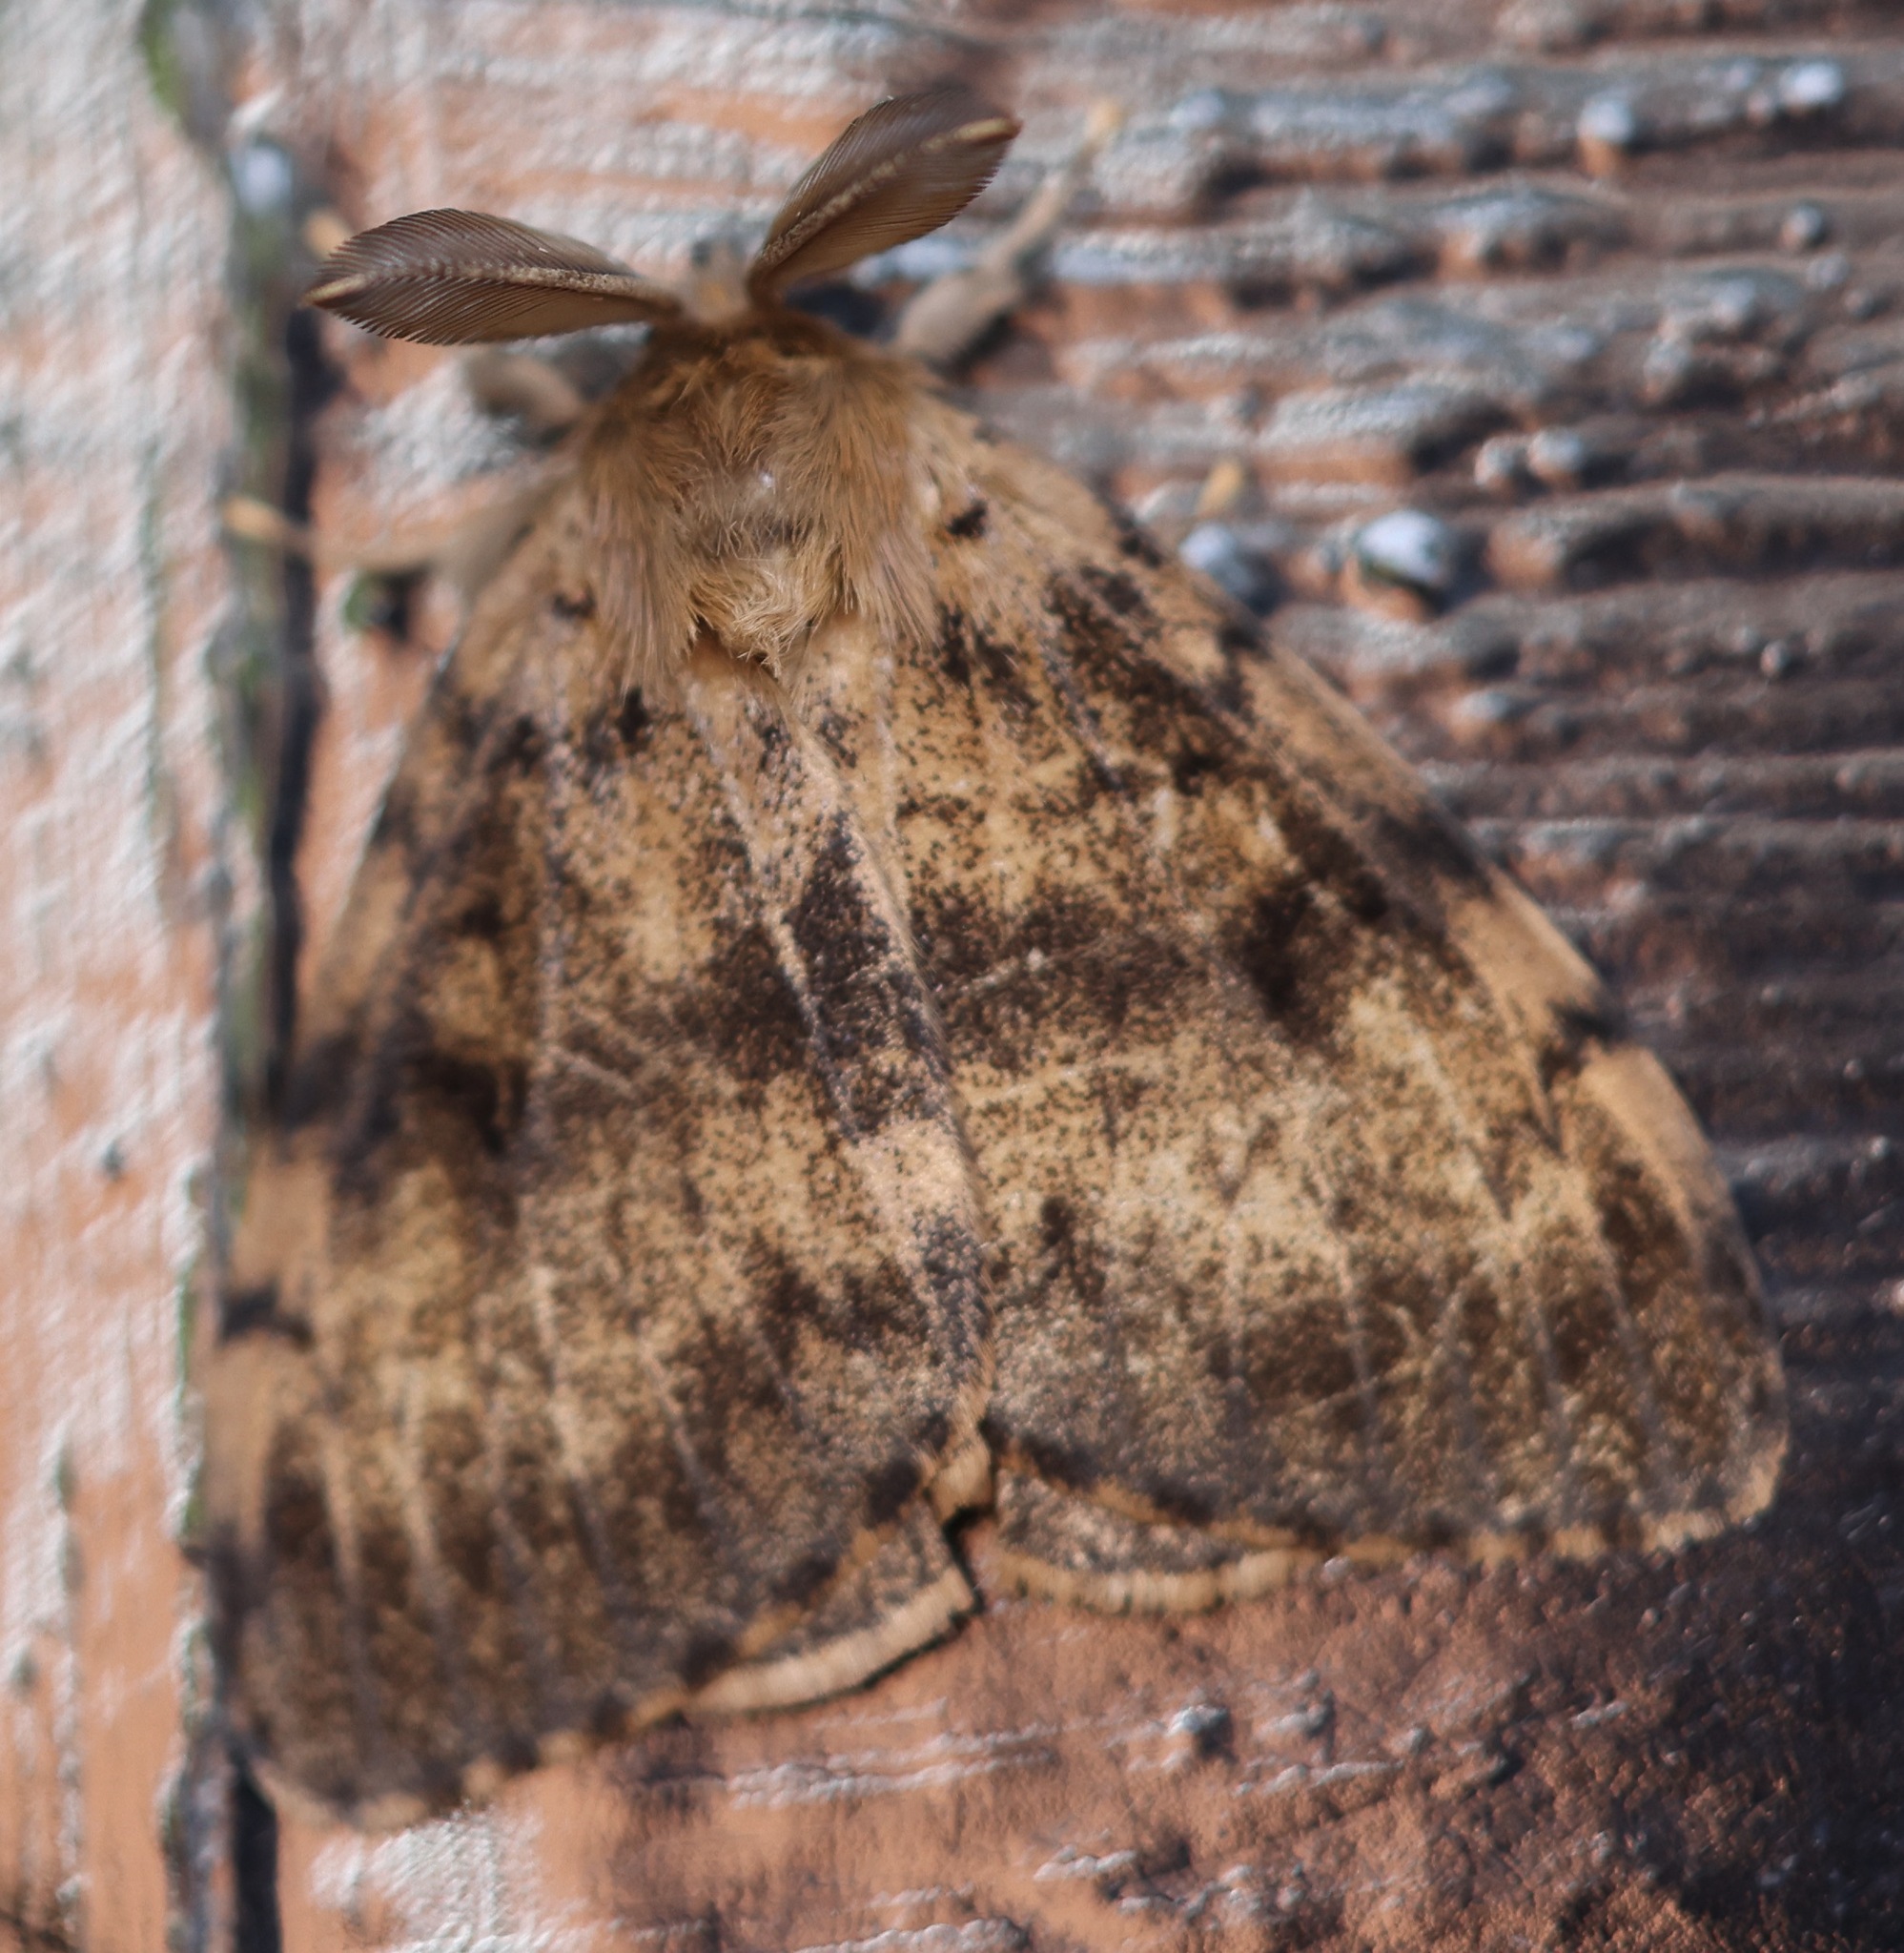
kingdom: Animalia
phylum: Arthropoda
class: Insecta
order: Lepidoptera
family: Erebidae
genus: Lymantria
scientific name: Lymantria dispar
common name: Gypsy moth
